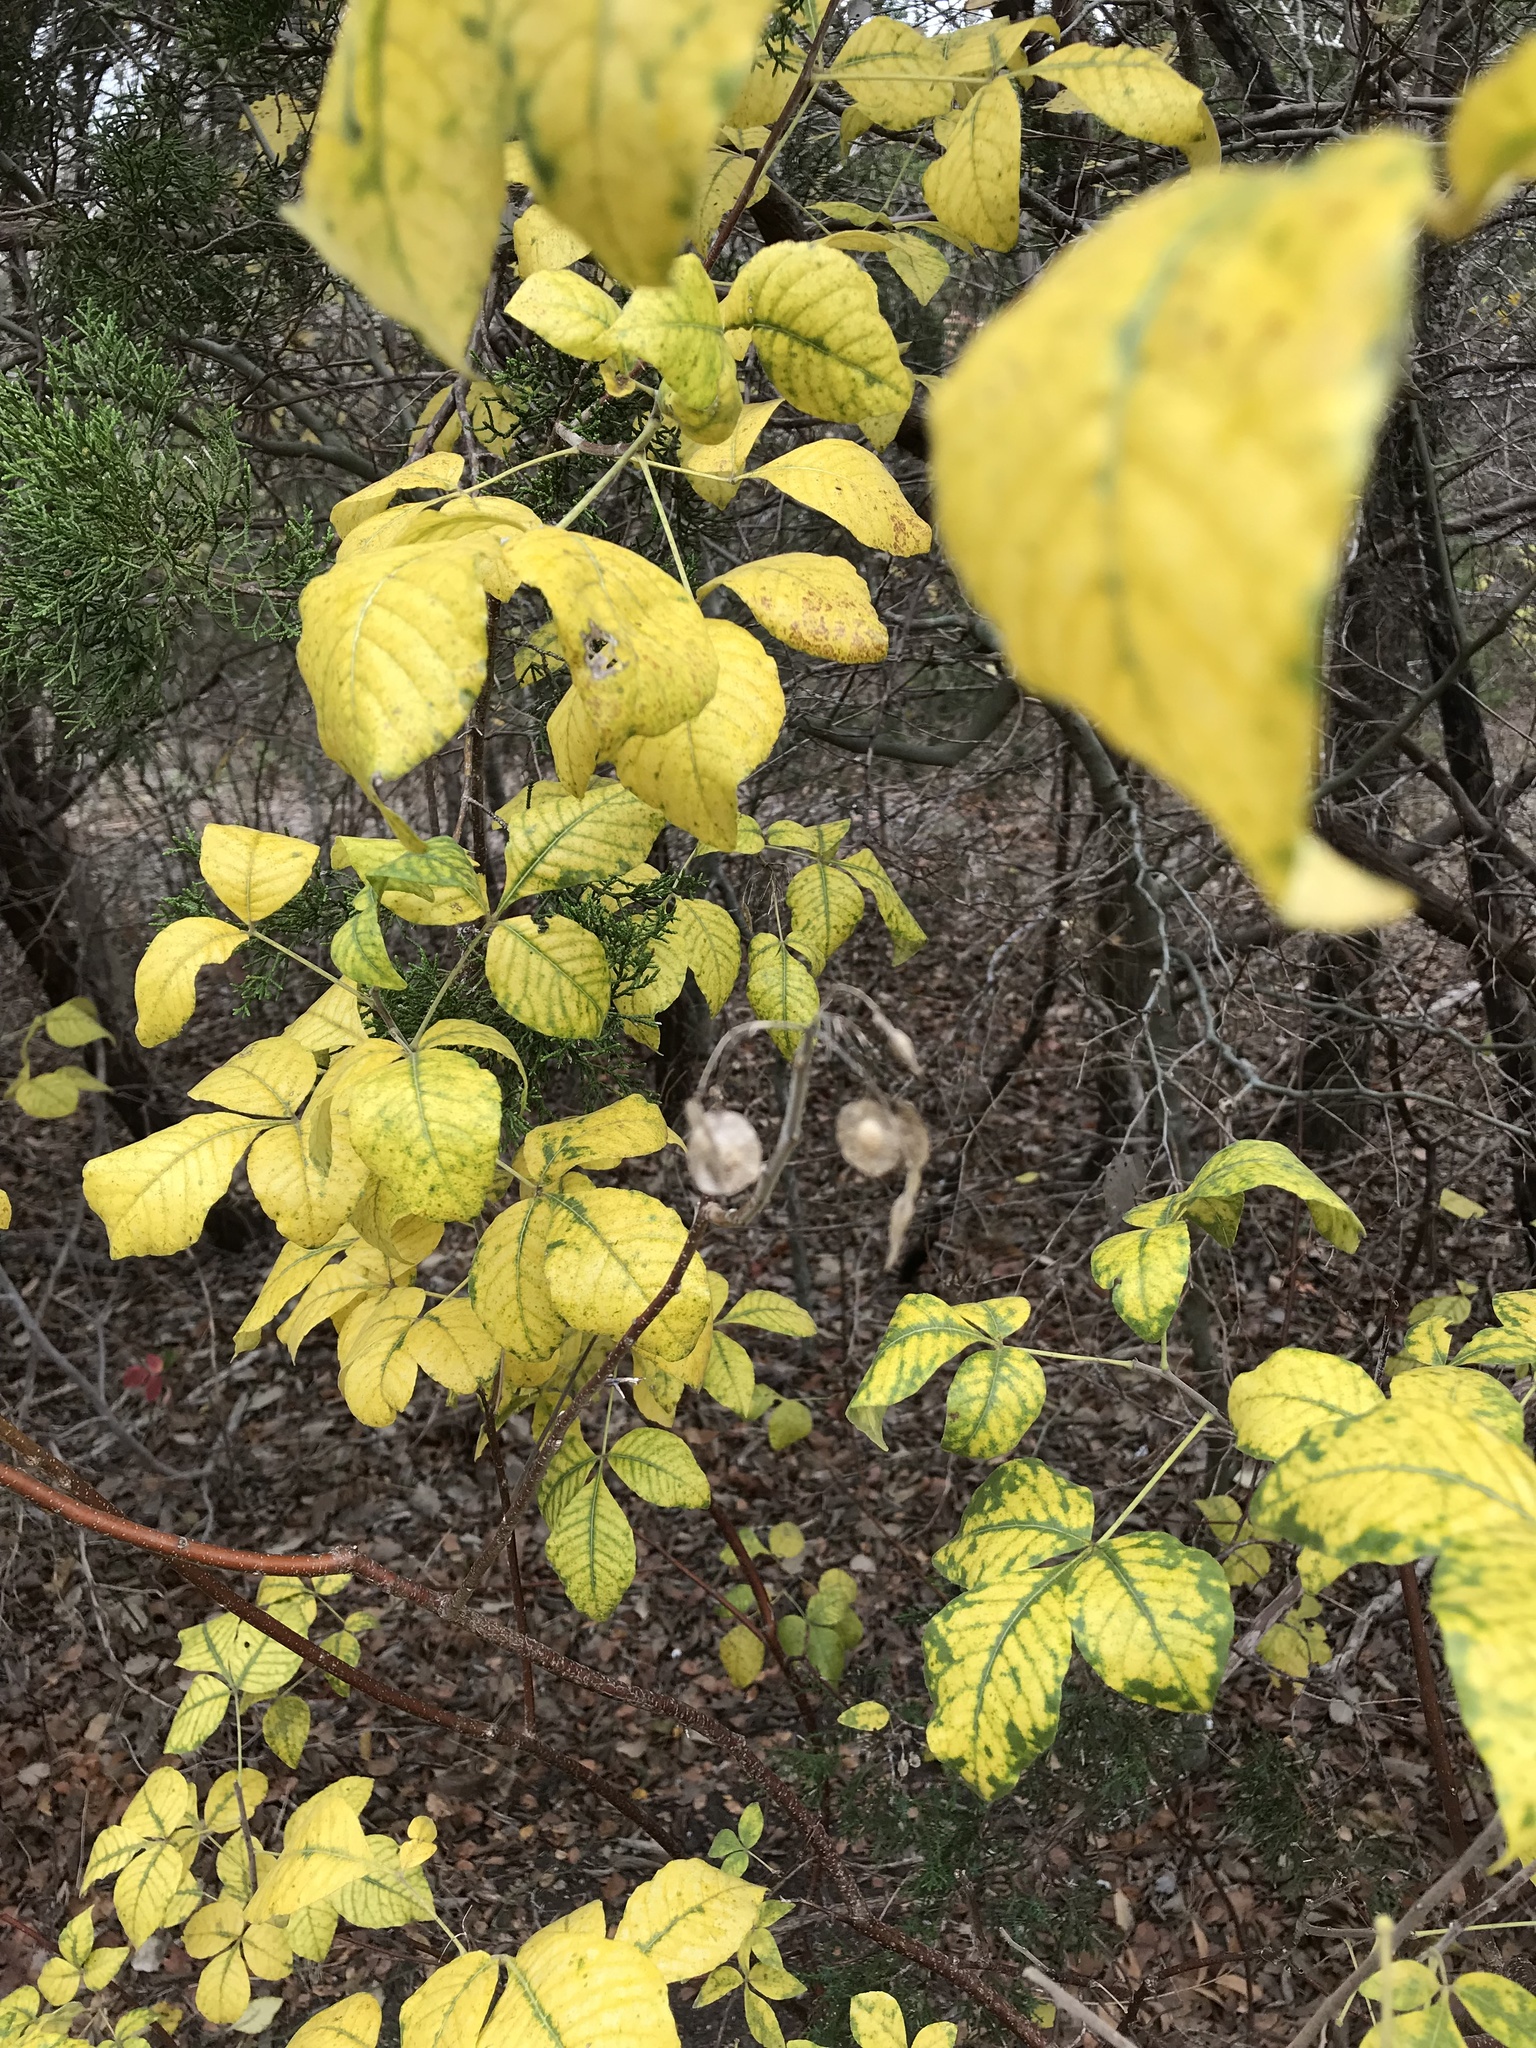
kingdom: Plantae
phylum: Tracheophyta
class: Magnoliopsida
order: Sapindales
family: Rutaceae
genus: Ptelea
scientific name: Ptelea trifoliata
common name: Common hop-tree
